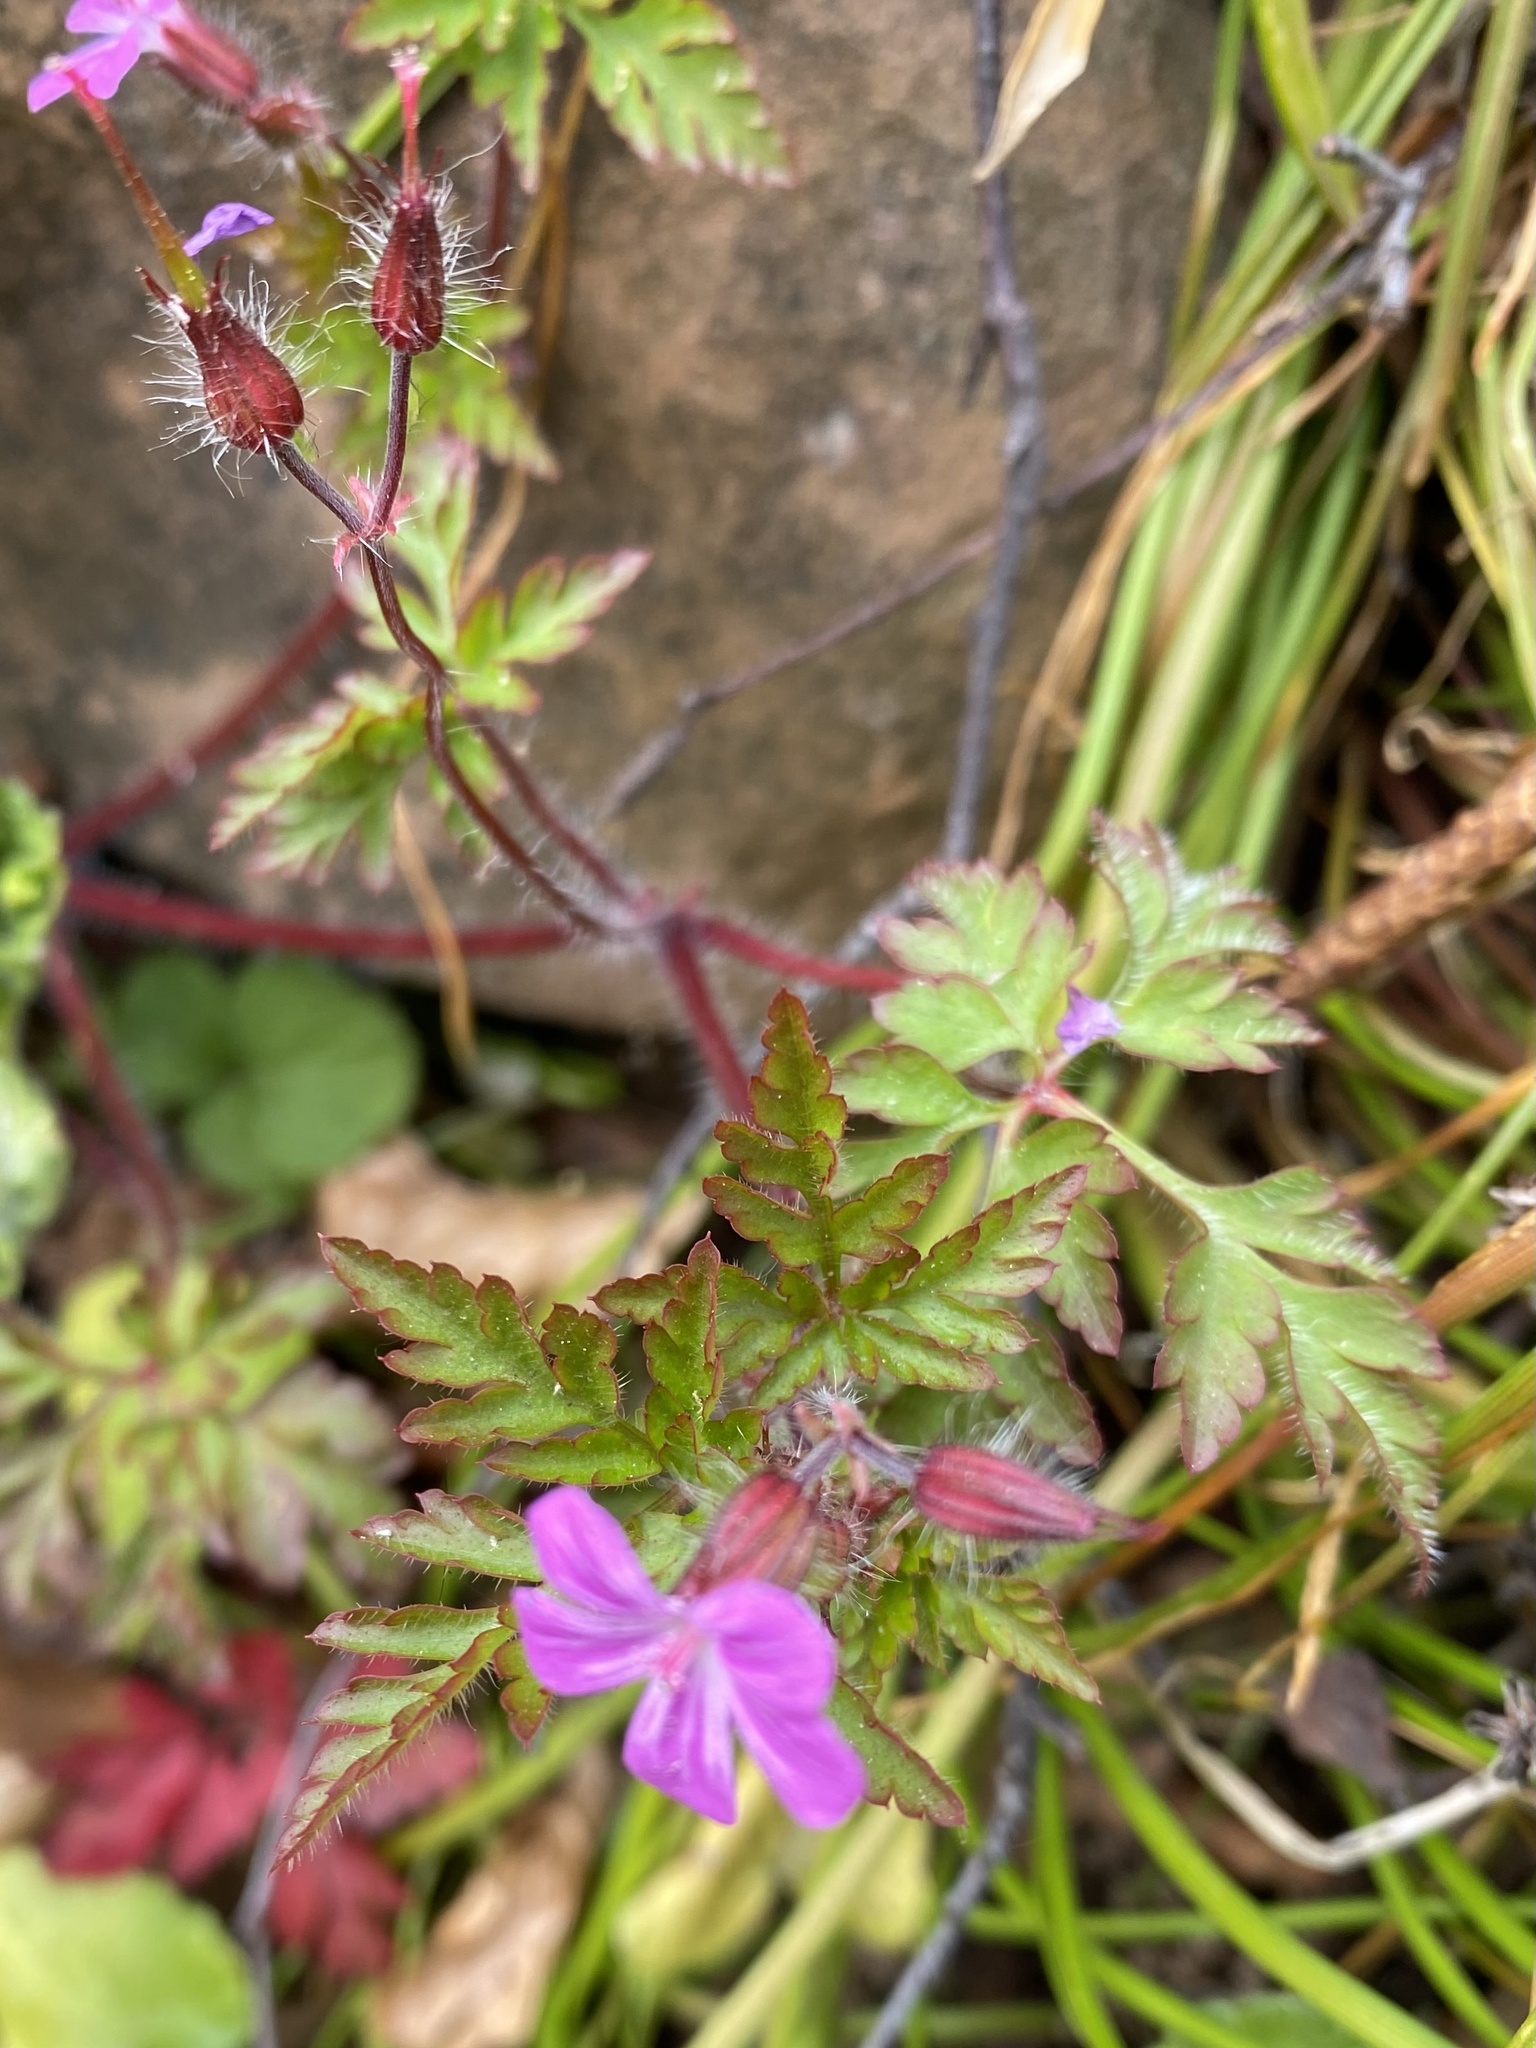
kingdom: Plantae
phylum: Tracheophyta
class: Magnoliopsida
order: Geraniales
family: Geraniaceae
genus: Geranium
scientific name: Geranium robertianum
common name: Herb-robert
